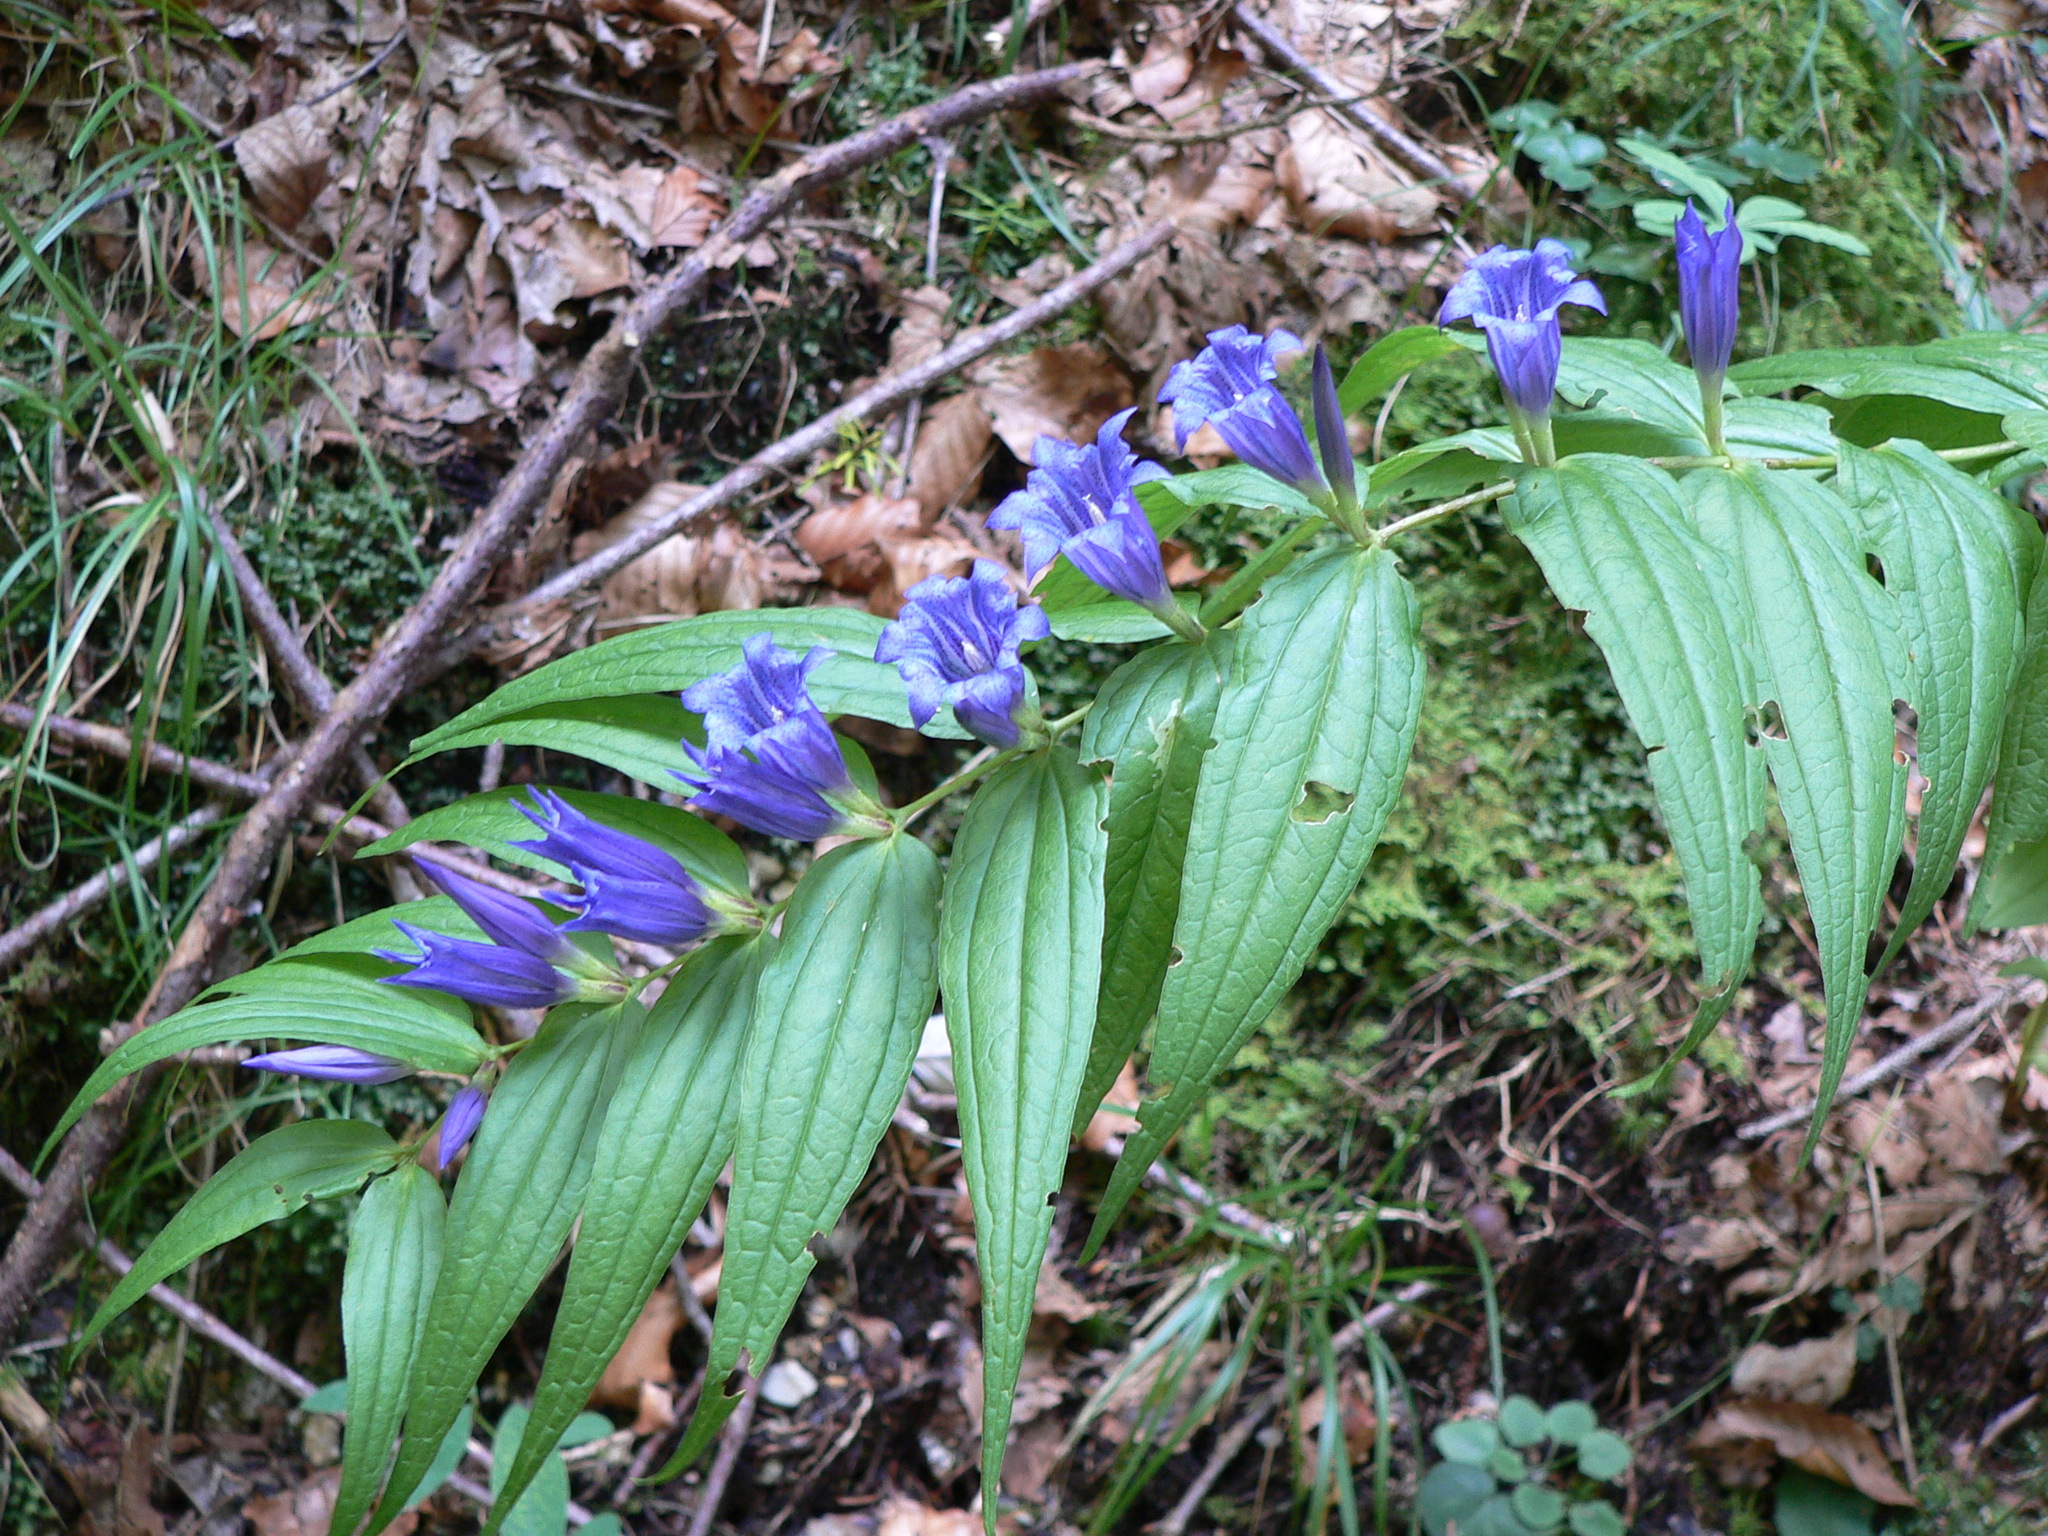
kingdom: Plantae
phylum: Tracheophyta
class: Magnoliopsida
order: Gentianales
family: Gentianaceae
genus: Gentiana
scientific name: Gentiana asclepiadea
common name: Willow gentian
